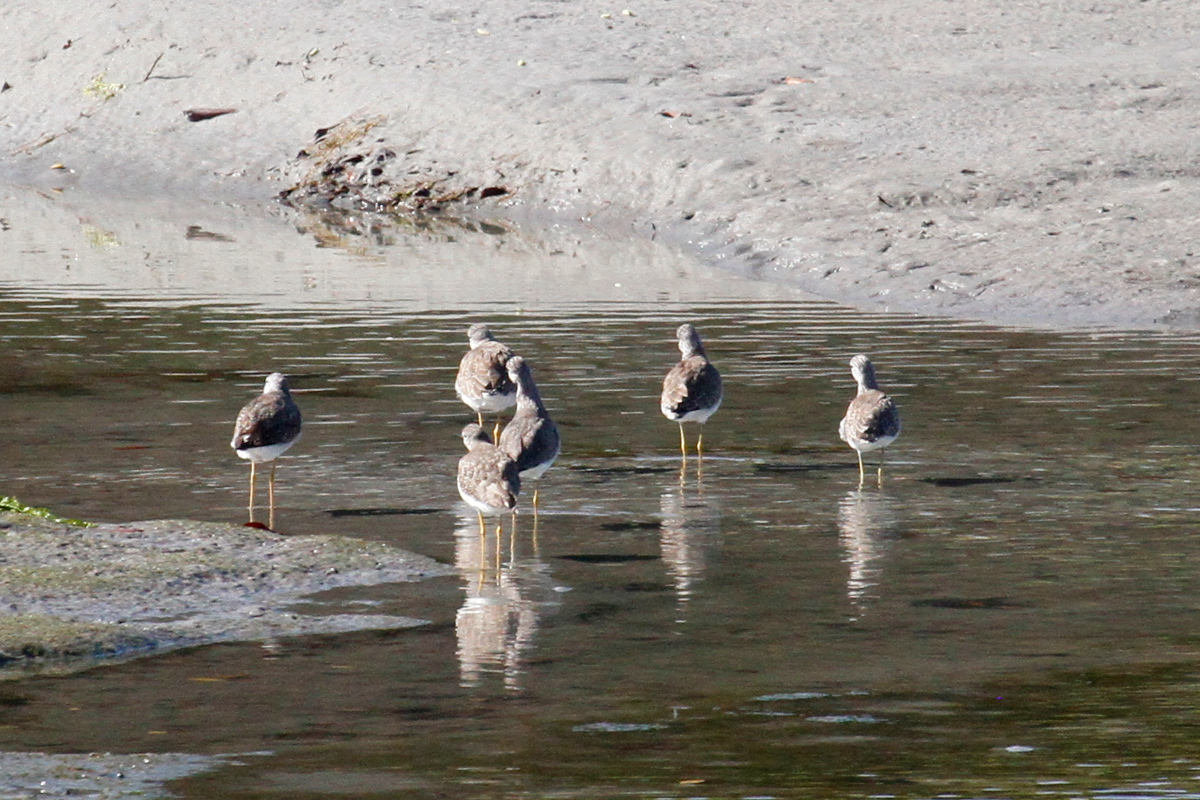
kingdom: Animalia
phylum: Chordata
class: Aves
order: Charadriiformes
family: Scolopacidae
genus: Tringa
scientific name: Tringa melanoleuca
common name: Greater yellowlegs
